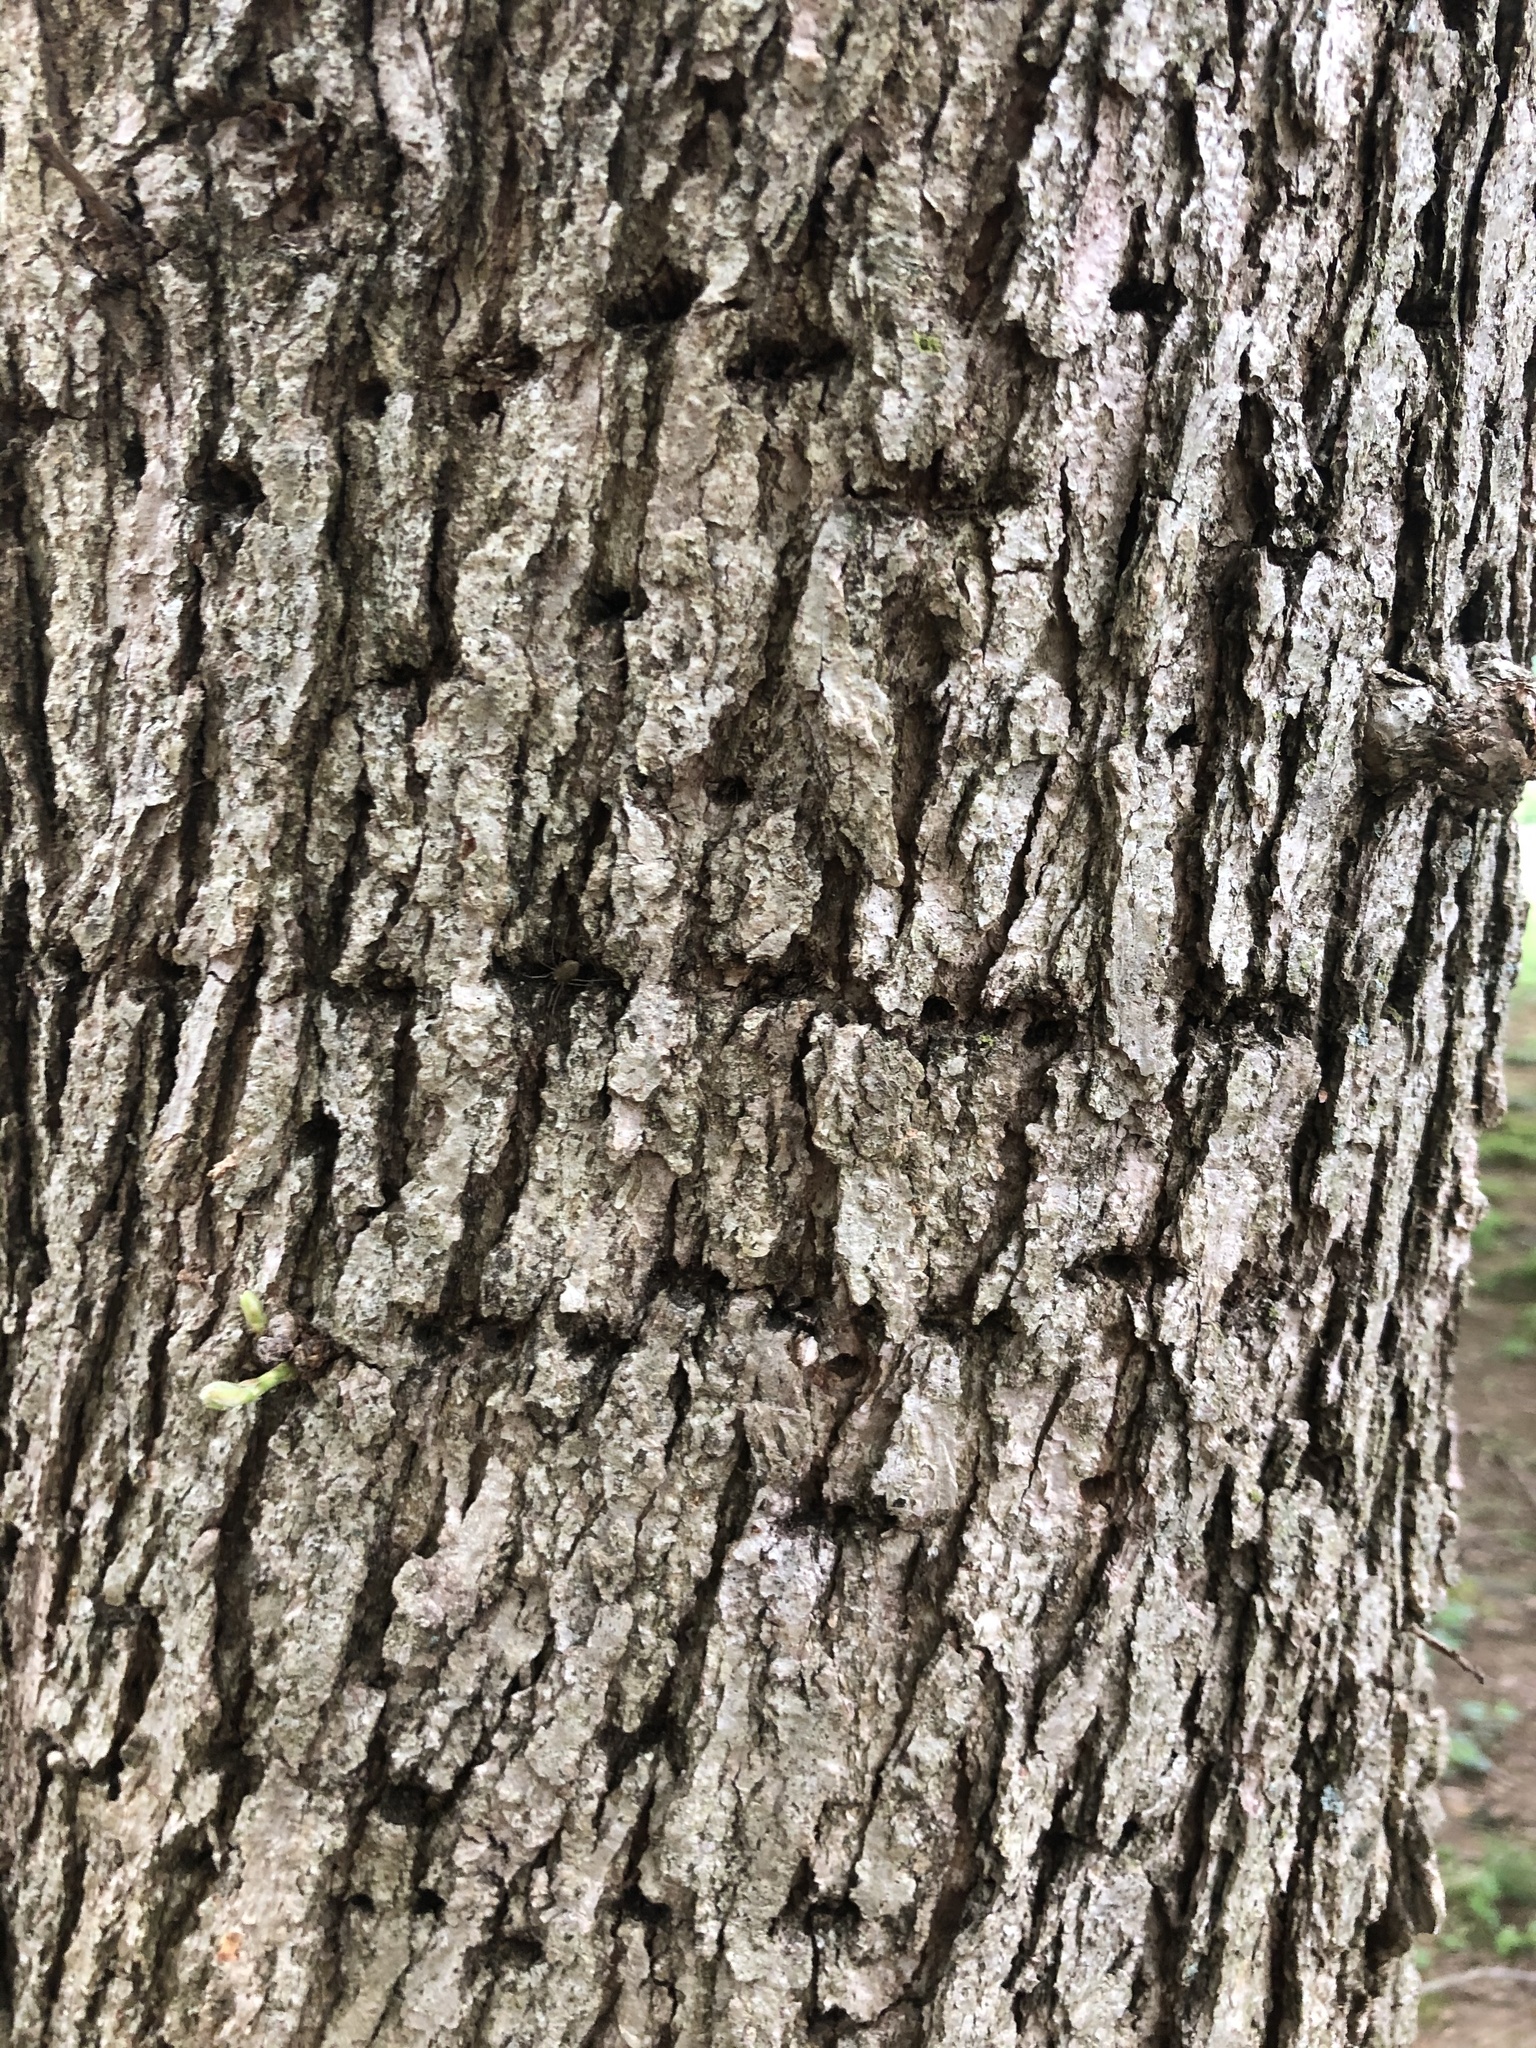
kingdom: Animalia
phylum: Chordata
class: Aves
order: Piciformes
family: Picidae
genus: Sphyrapicus
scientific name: Sphyrapicus varius
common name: Yellow-bellied sapsucker
